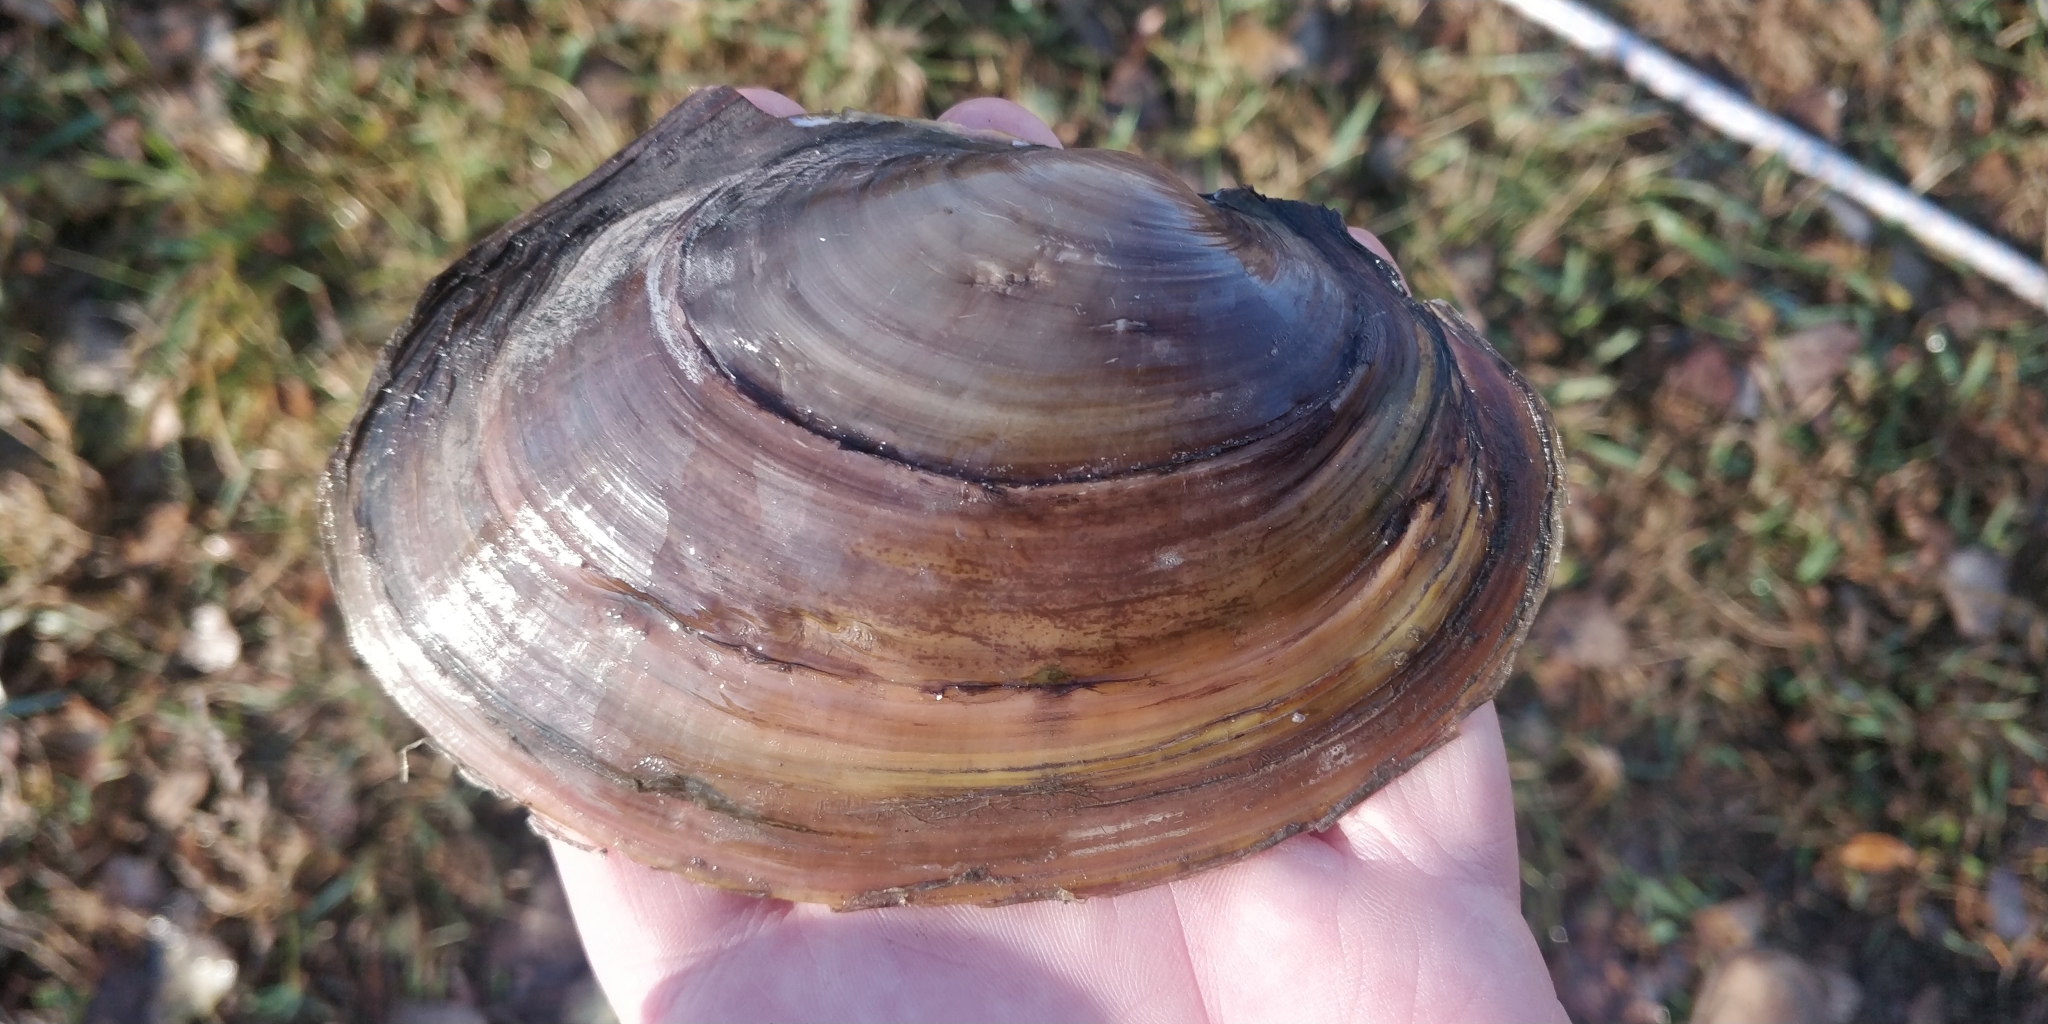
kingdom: Animalia
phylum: Mollusca
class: Bivalvia
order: Unionida
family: Unionidae
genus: Potamilus
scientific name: Potamilus ohiensis
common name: Pink papershell
